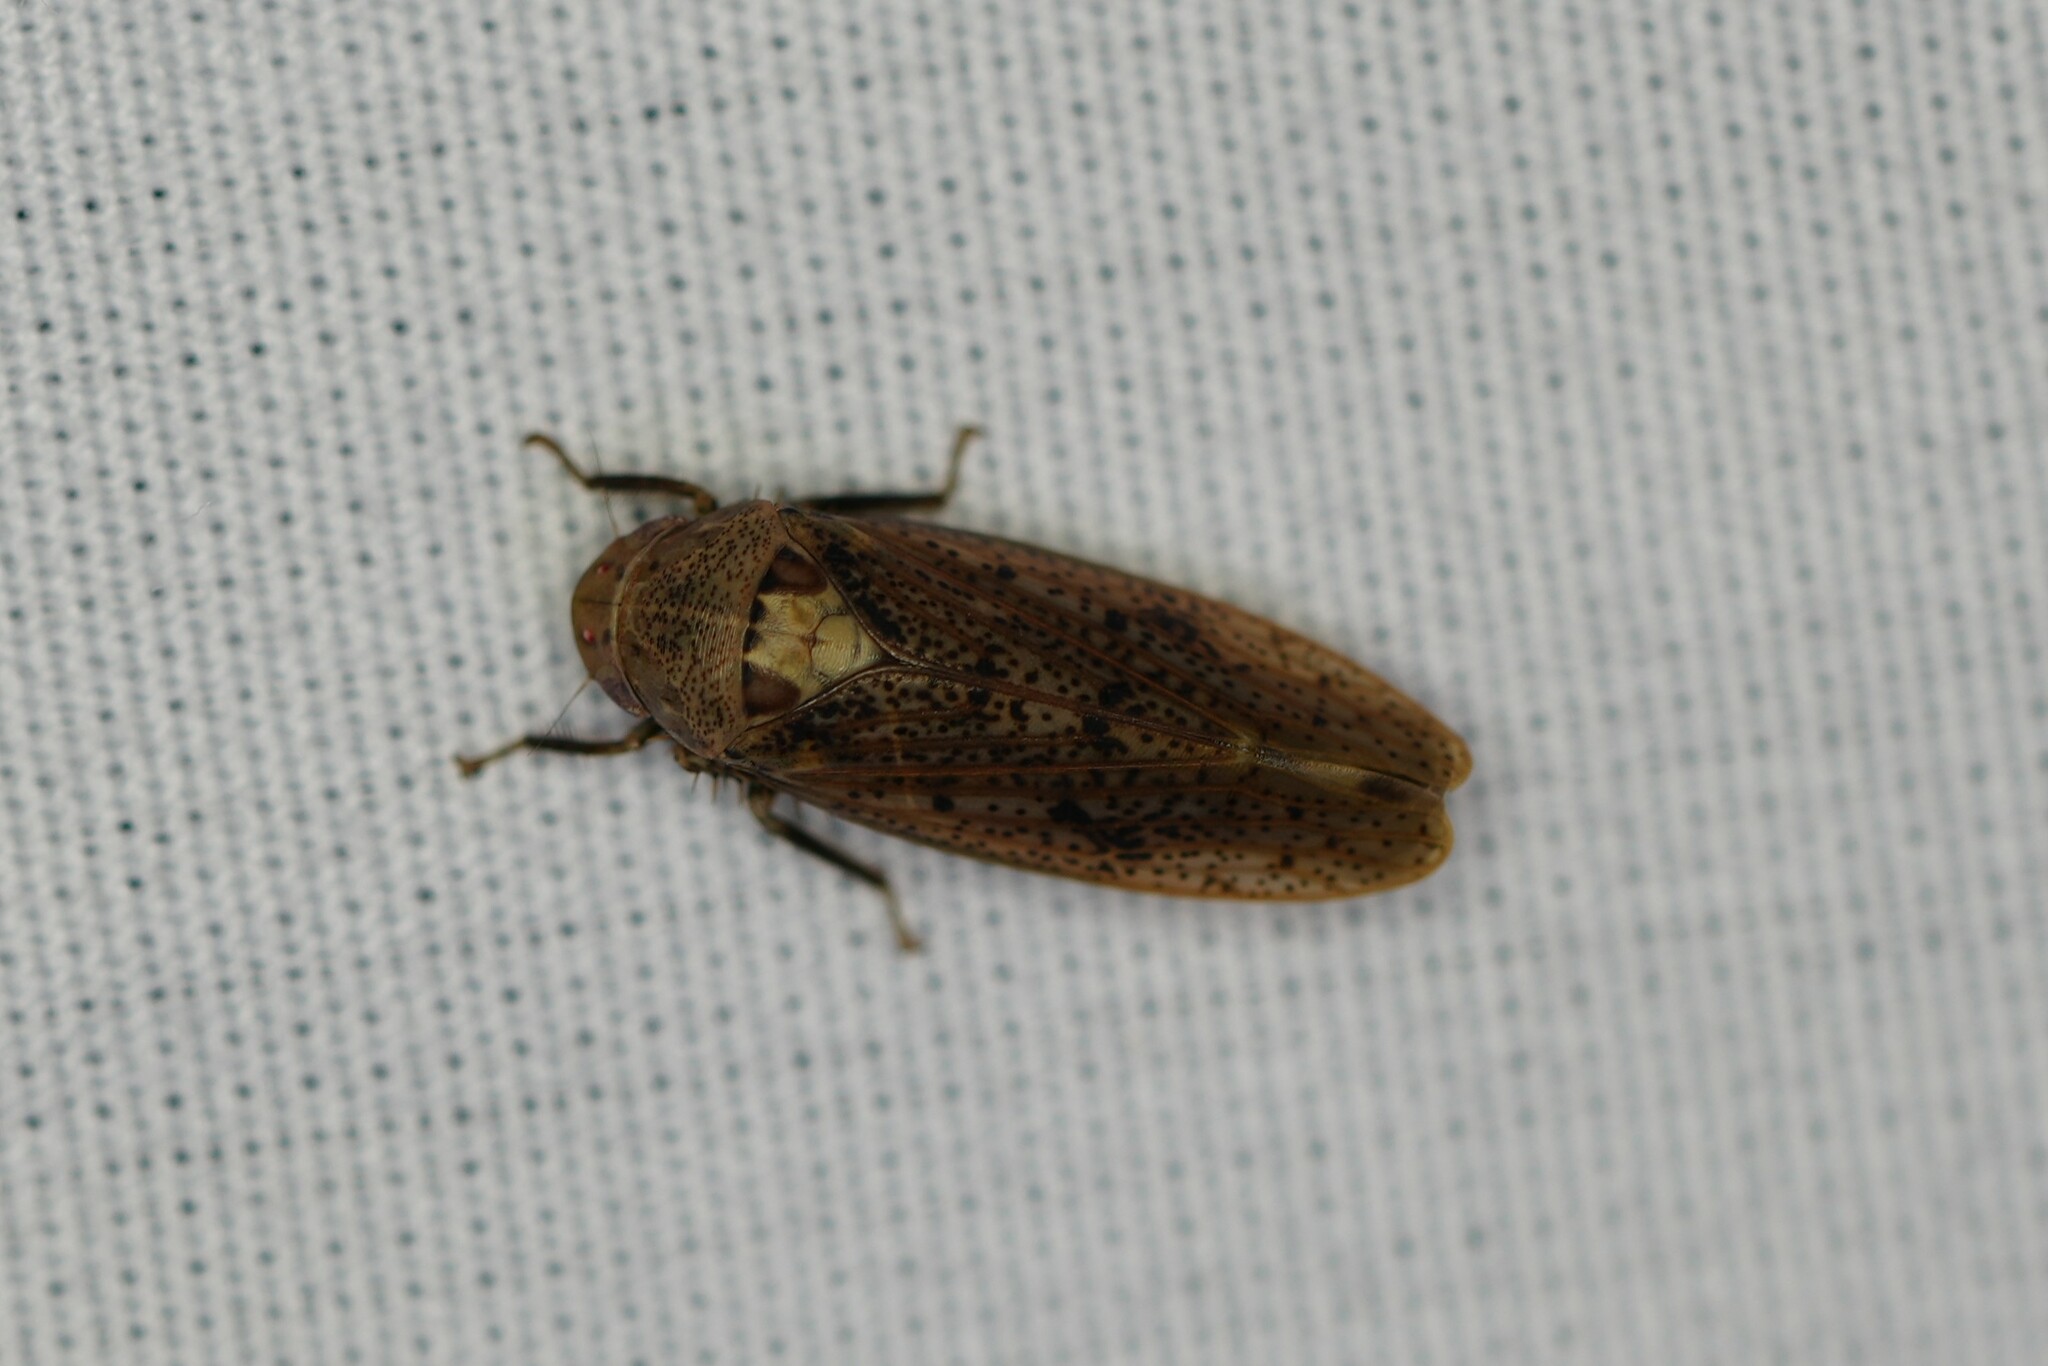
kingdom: Animalia
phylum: Arthropoda
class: Insecta
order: Hemiptera
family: Cicadellidae
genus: Ponana
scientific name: Ponana puncticollis
